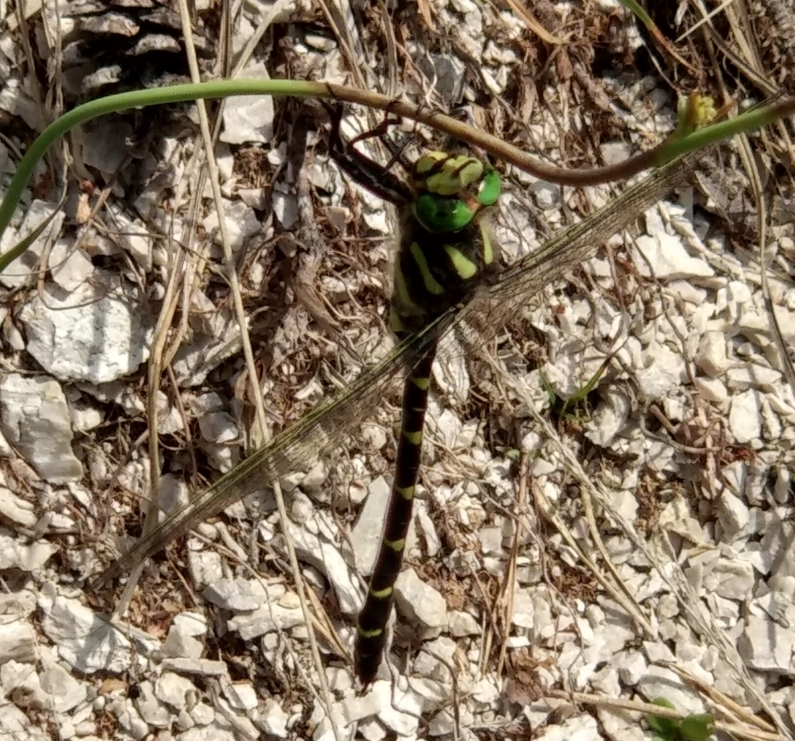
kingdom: Animalia
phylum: Arthropoda
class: Insecta
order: Odonata
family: Cordulegastridae
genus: Cordulegaster
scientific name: Cordulegaster bidentata
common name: Sombre goldenring
